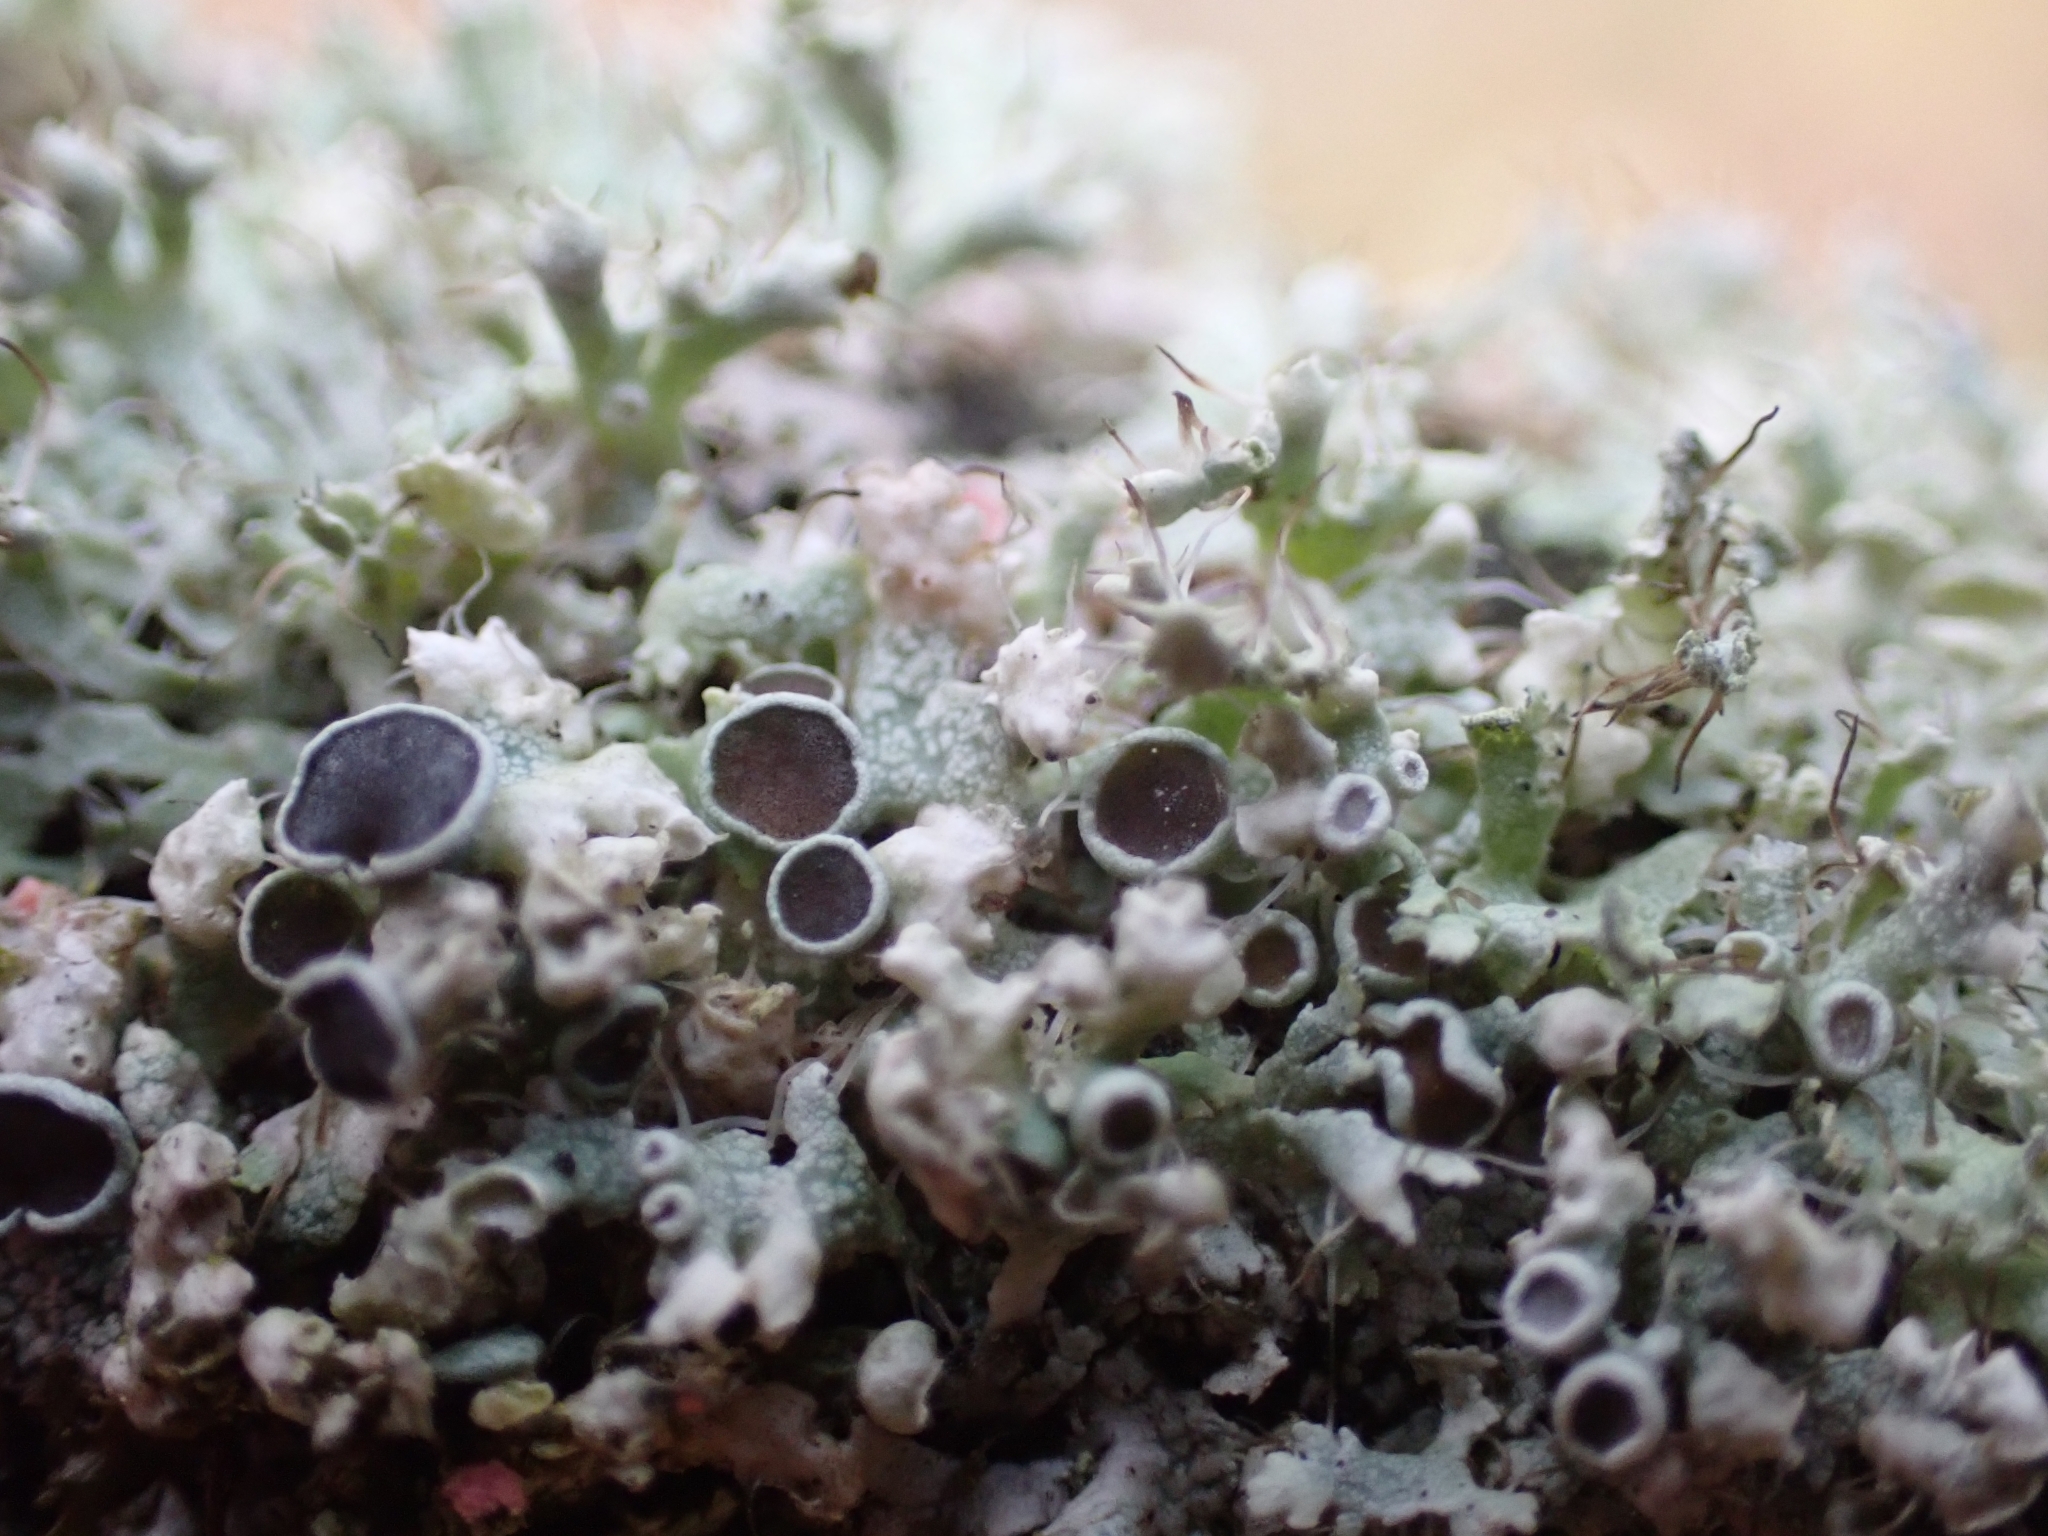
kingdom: Fungi
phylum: Ascomycota
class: Lecanoromycetes
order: Caliciales
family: Physciaceae
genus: Physcia
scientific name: Physcia adscendens
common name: Hooded rosette lichen
